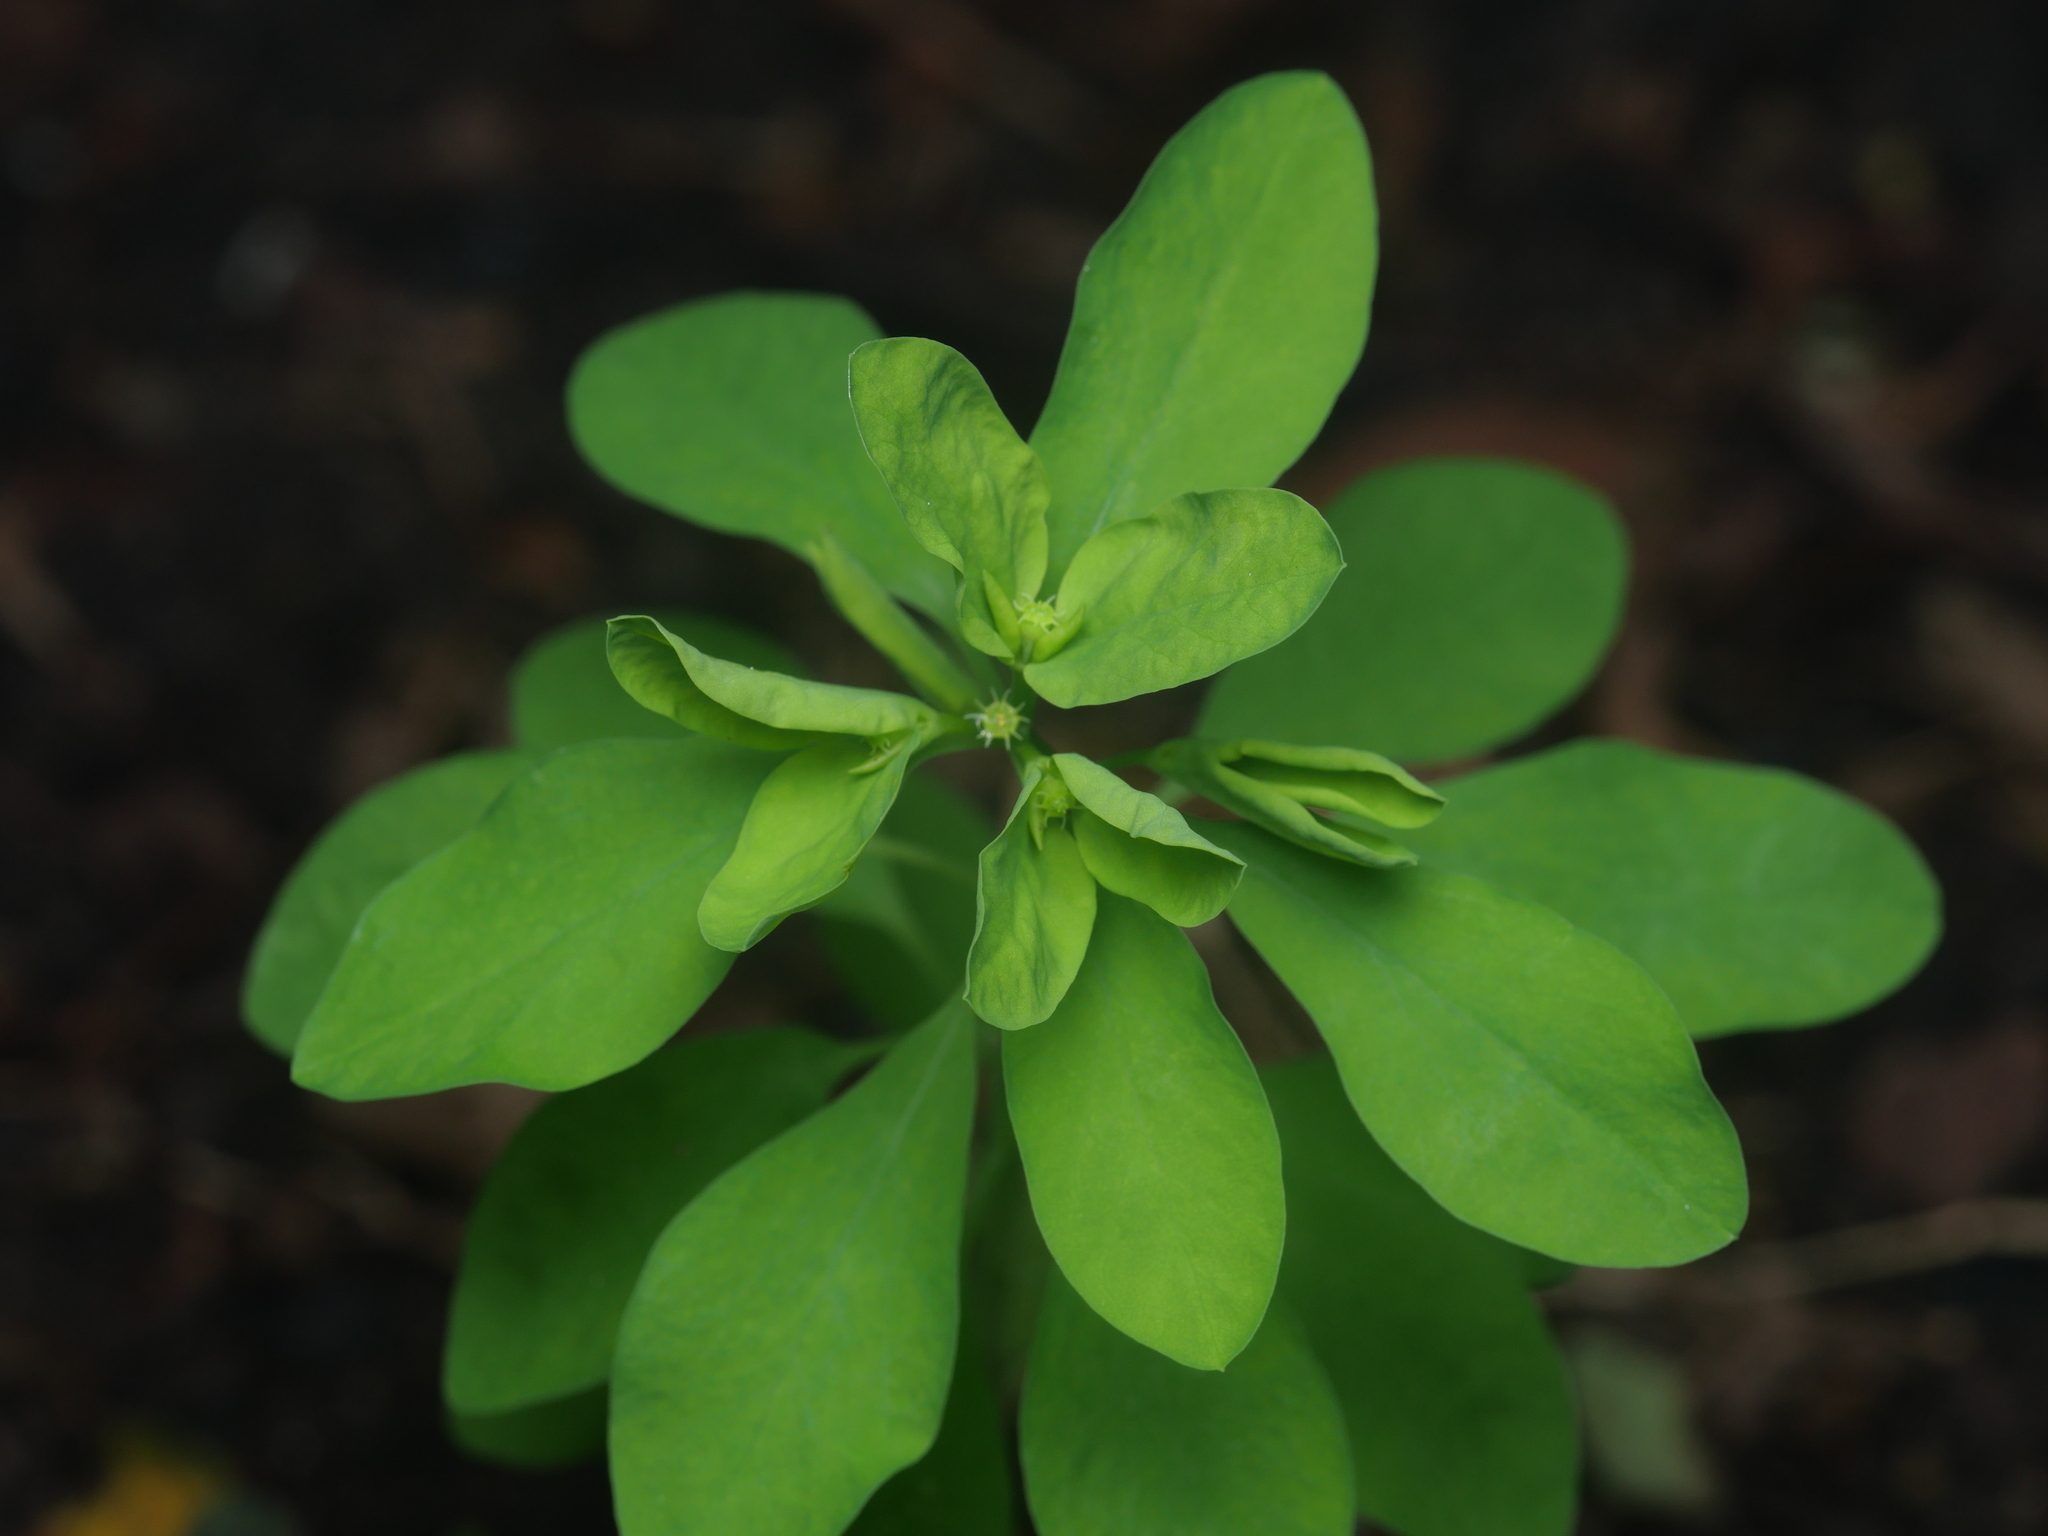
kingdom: Plantae
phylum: Tracheophyta
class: Magnoliopsida
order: Malpighiales
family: Euphorbiaceae
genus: Euphorbia
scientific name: Euphorbia peplus
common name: Petty spurge
